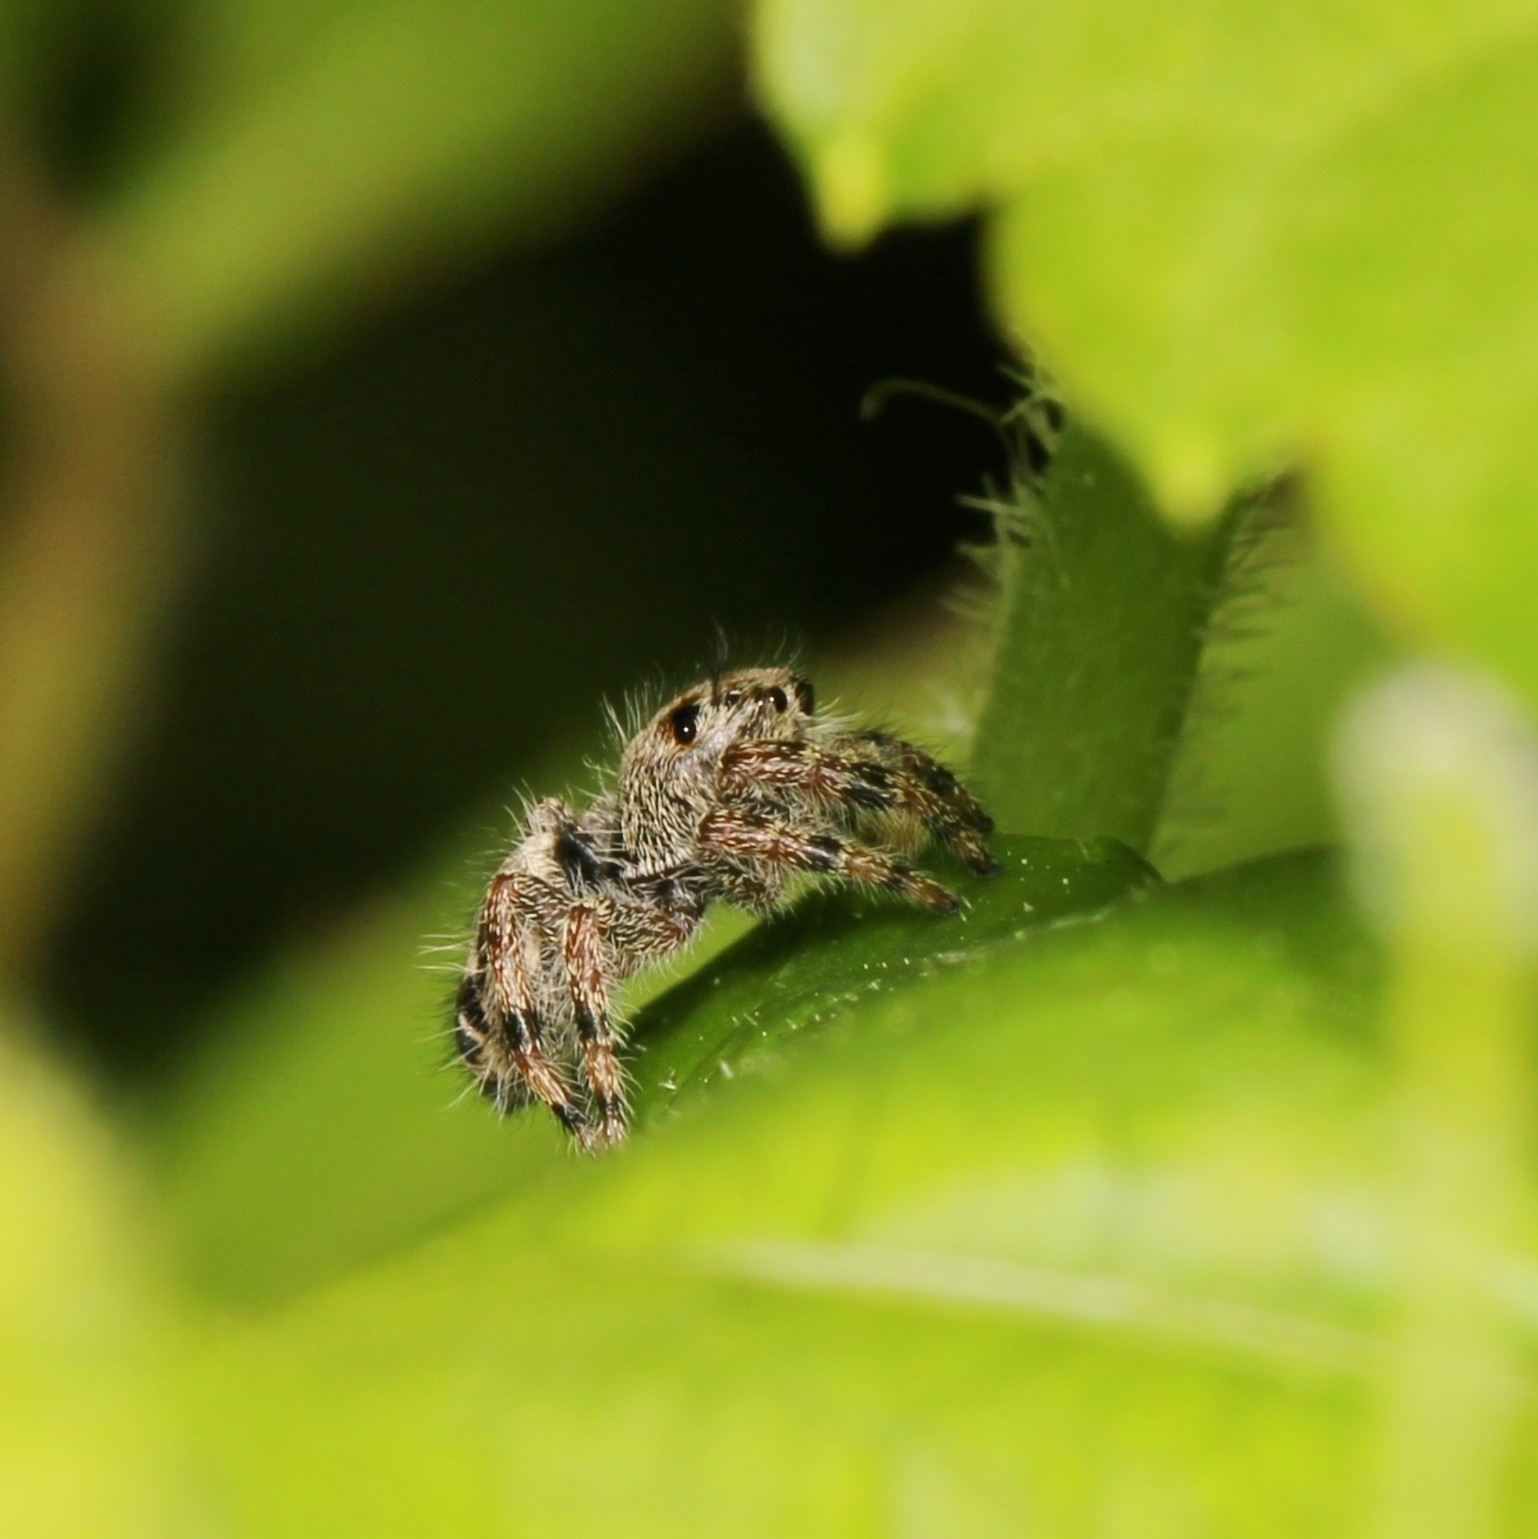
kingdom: Animalia
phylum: Arthropoda
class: Arachnida
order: Araneae
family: Salticidae
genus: Phidippus
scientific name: Phidippus putnami
